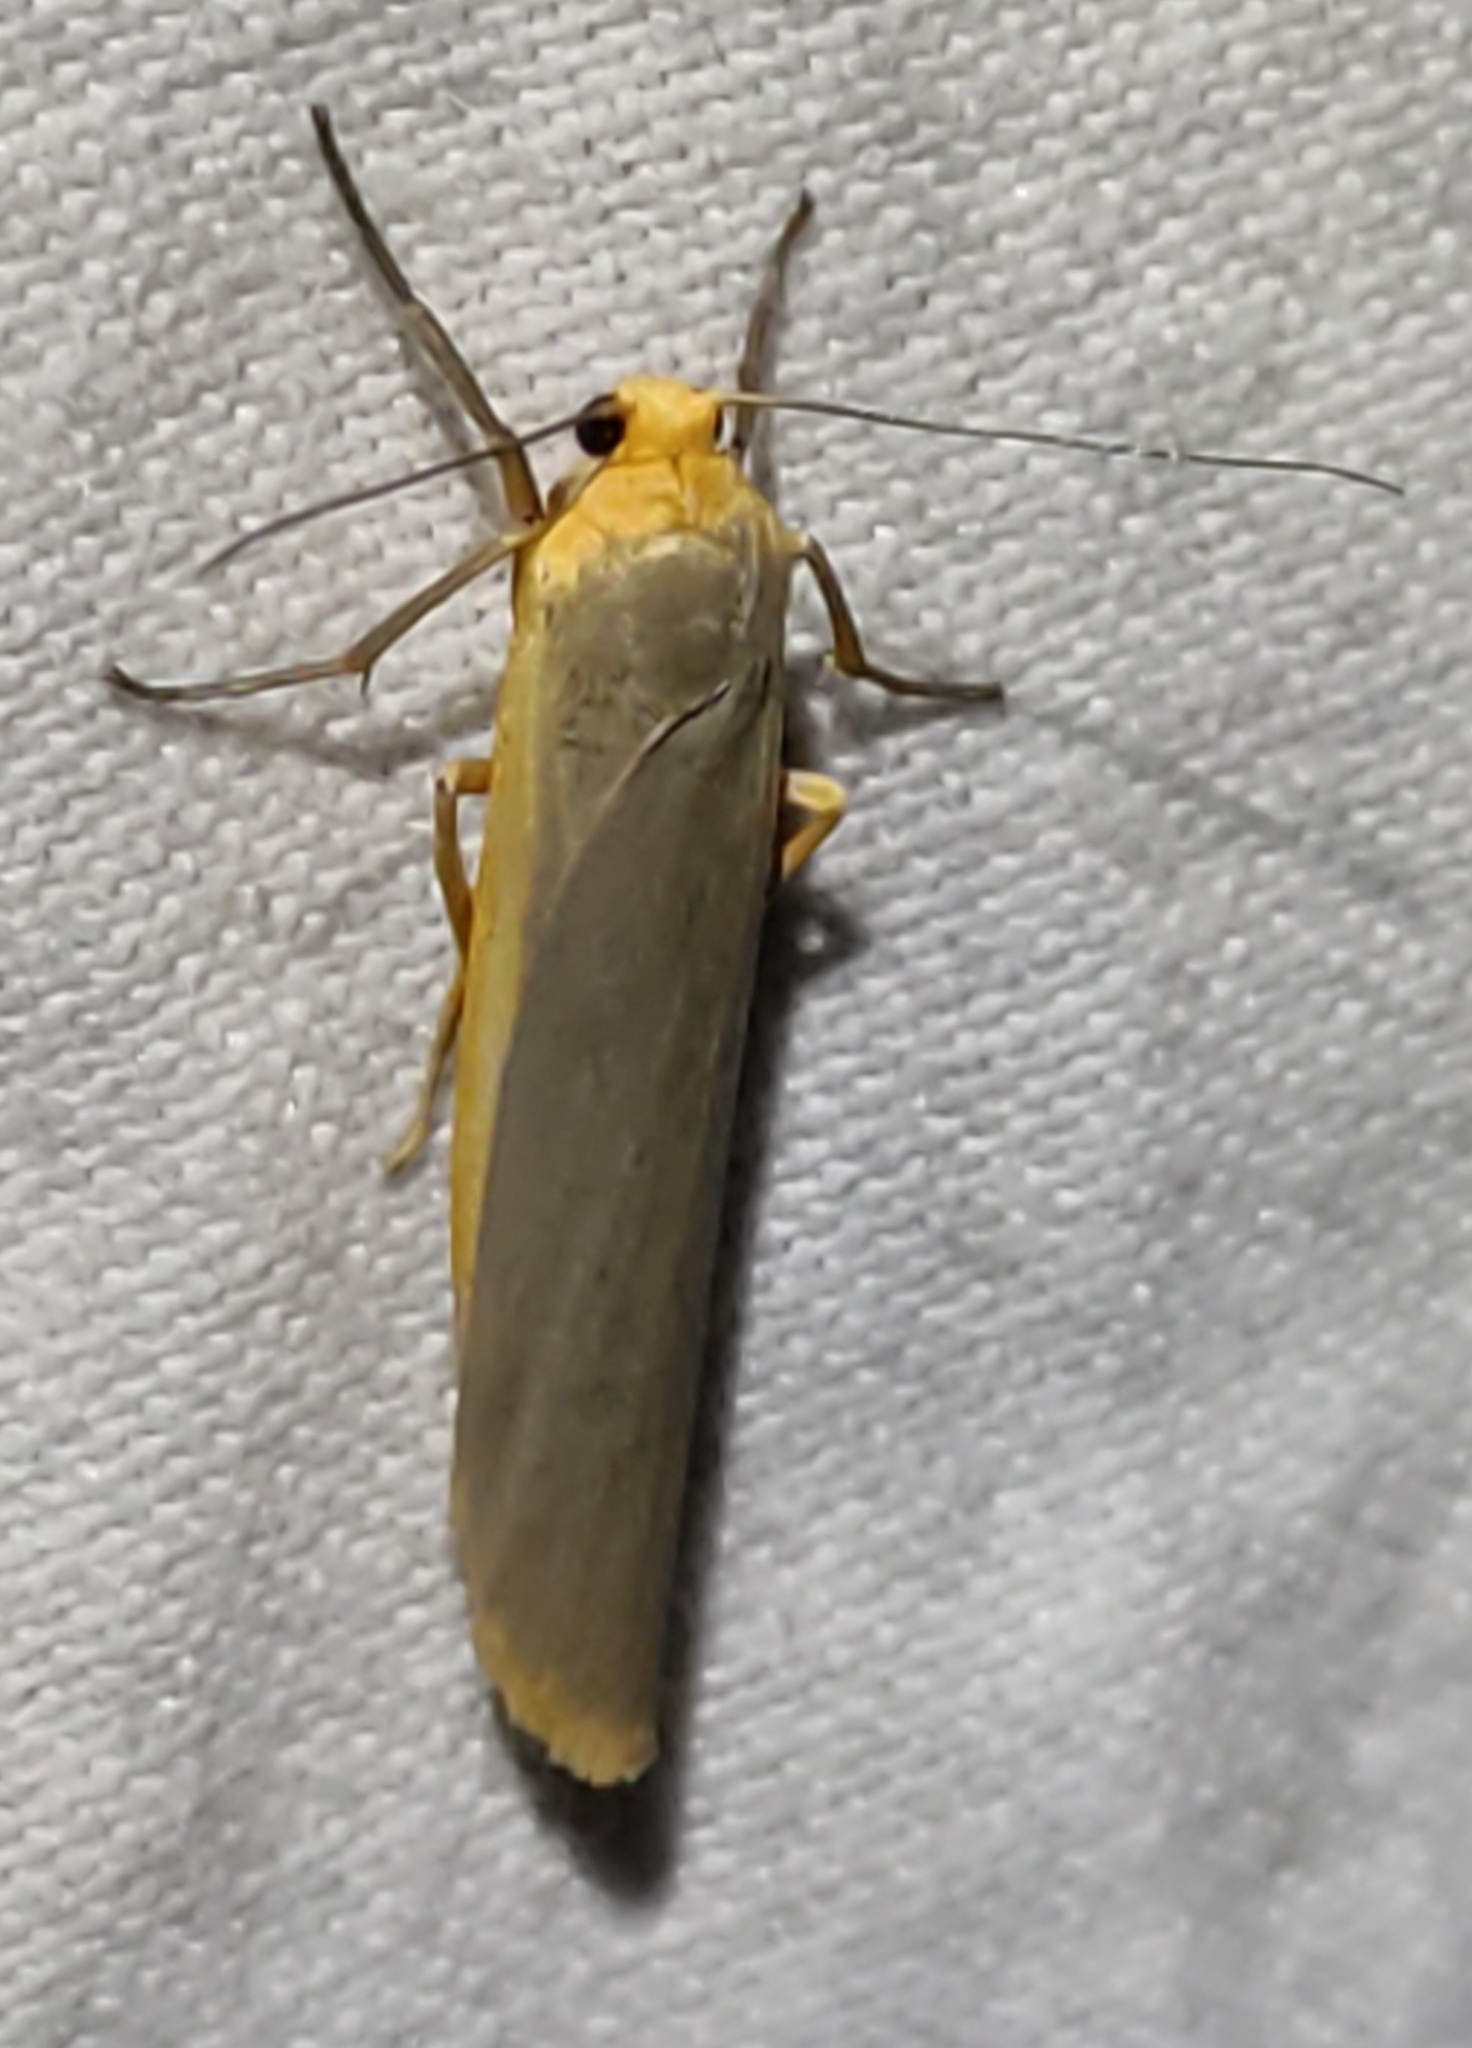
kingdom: Animalia
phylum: Arthropoda
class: Insecta
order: Lepidoptera
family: Erebidae
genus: Manulea
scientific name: Manulea complana
